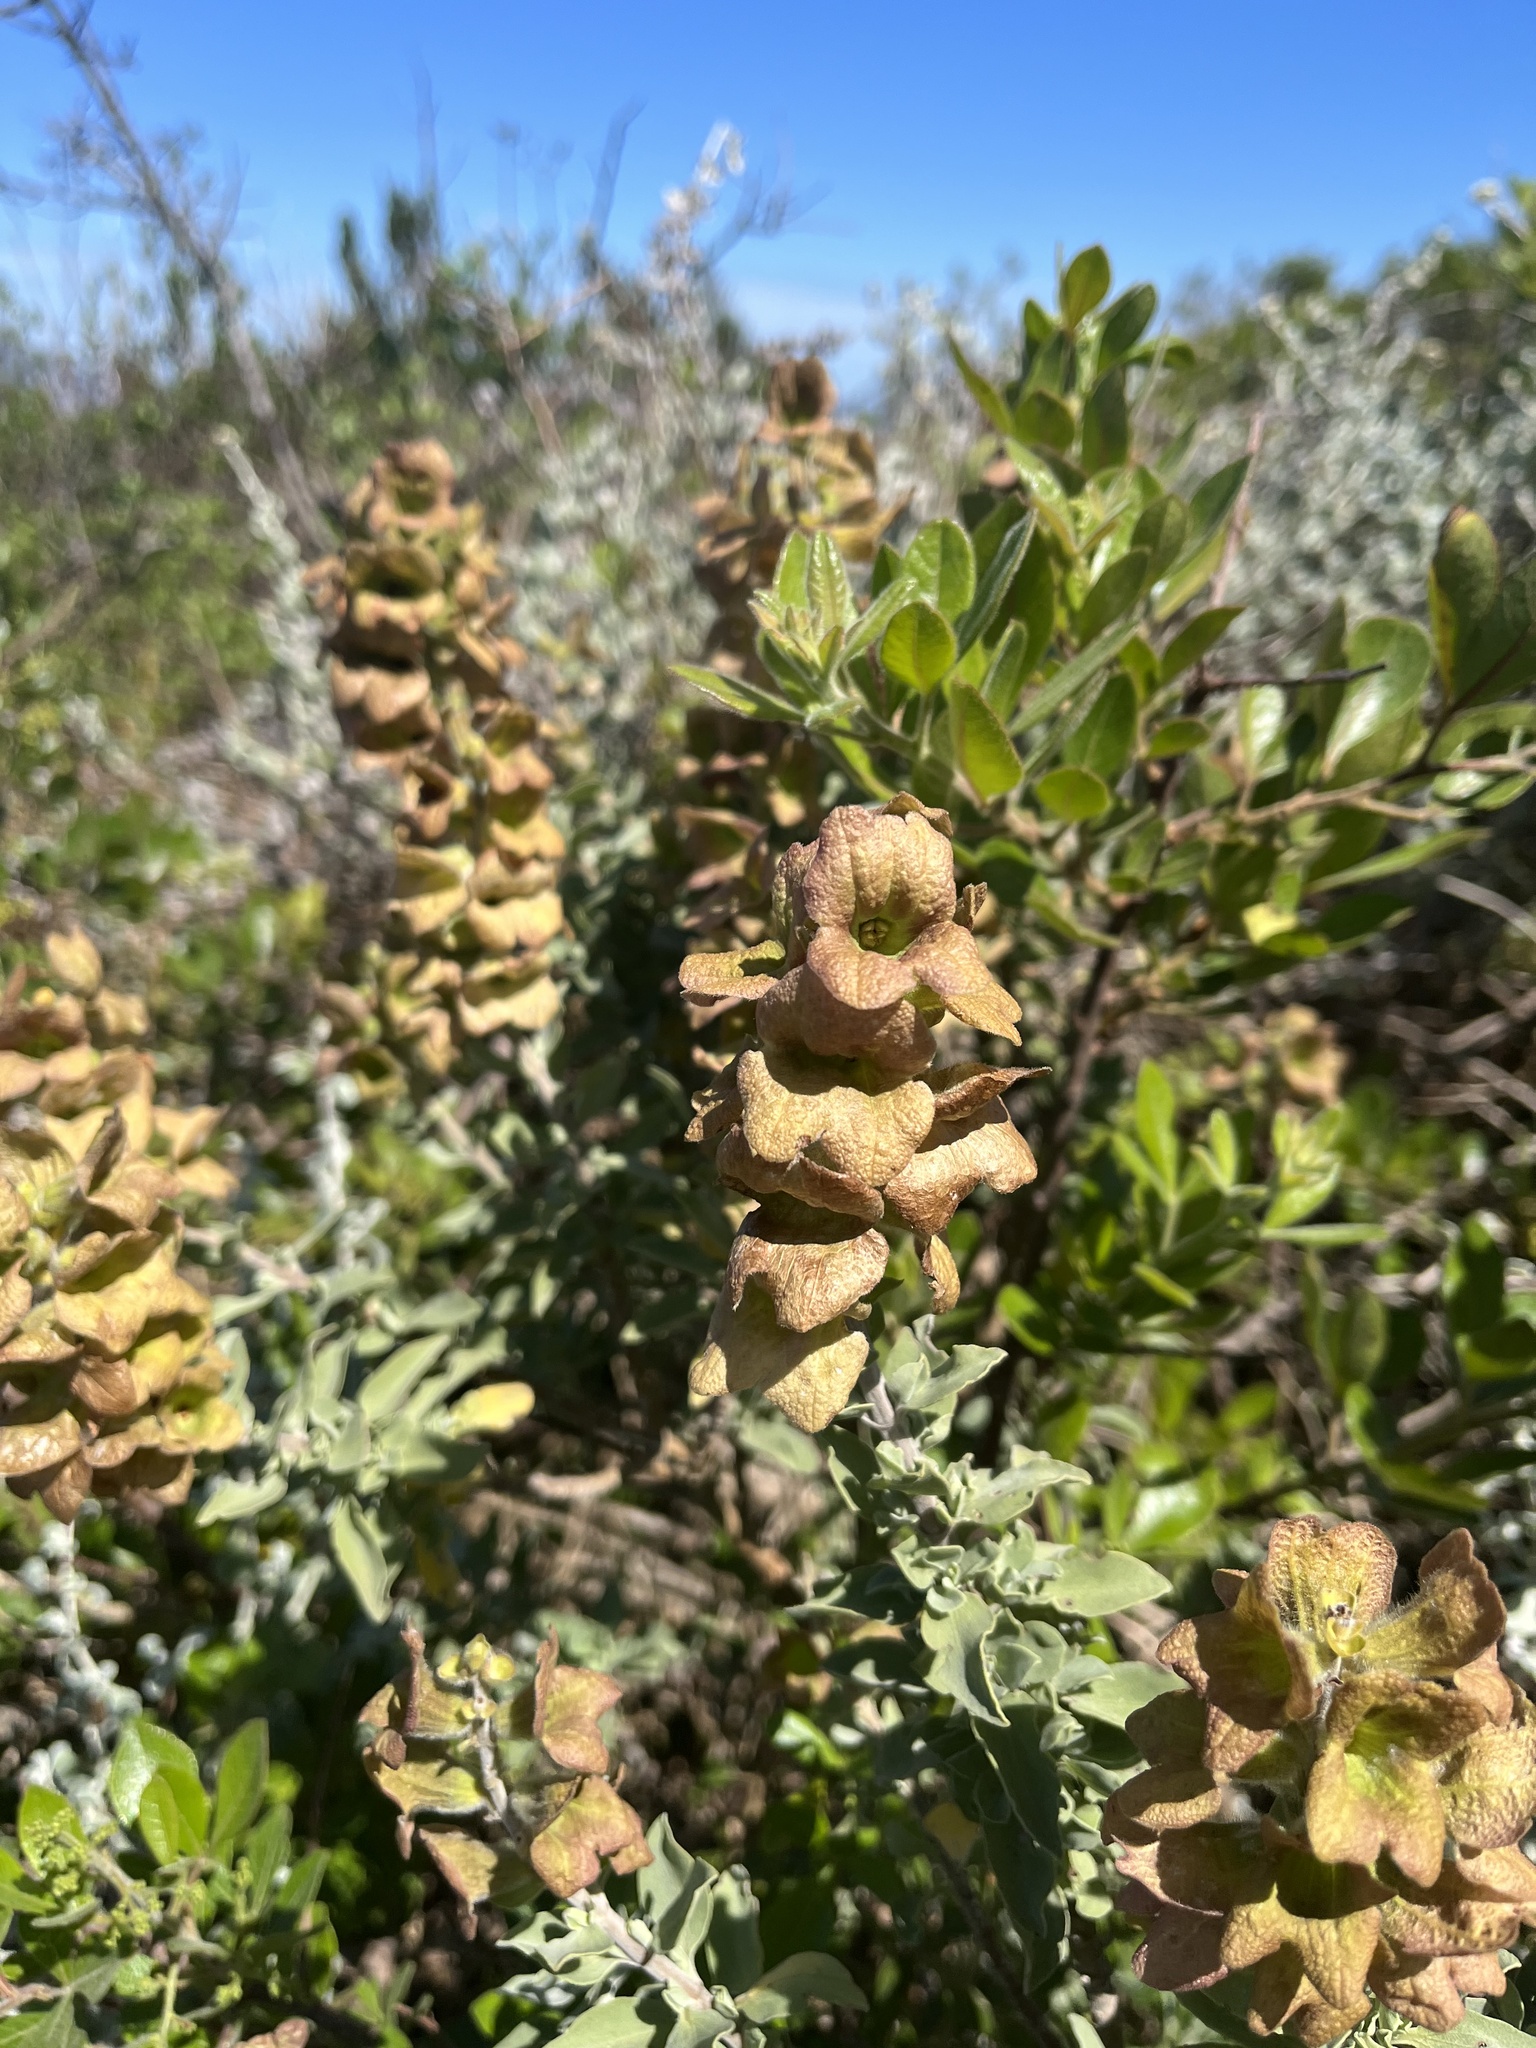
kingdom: Plantae
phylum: Tracheophyta
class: Magnoliopsida
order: Lamiales
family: Lamiaceae
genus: Salvia
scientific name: Salvia aurea
